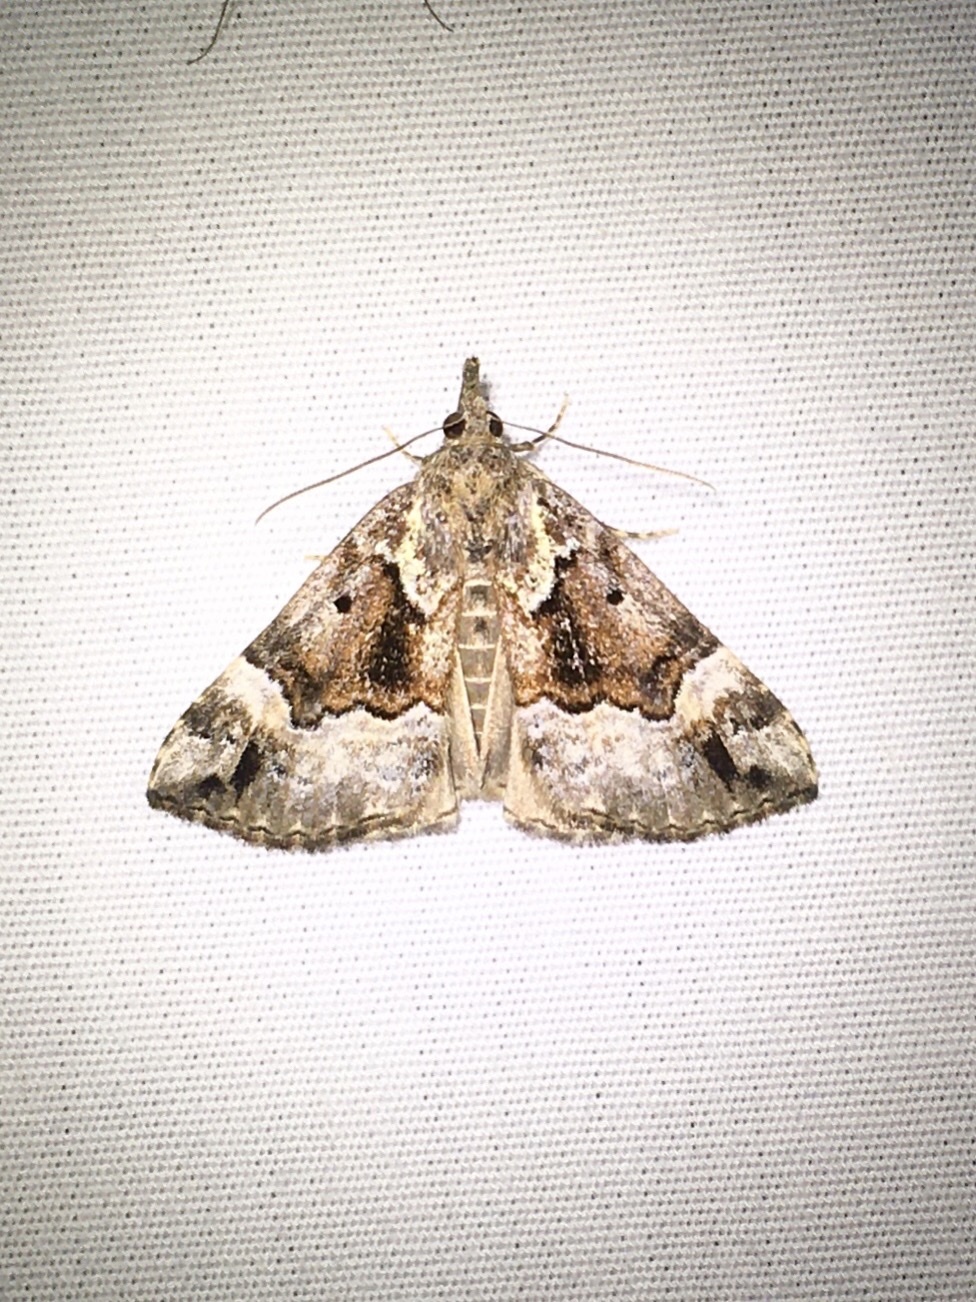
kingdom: Animalia
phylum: Arthropoda
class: Insecta
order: Lepidoptera
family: Erebidae
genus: Hypena
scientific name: Hypena palparia
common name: Mottled bomolocha moth
